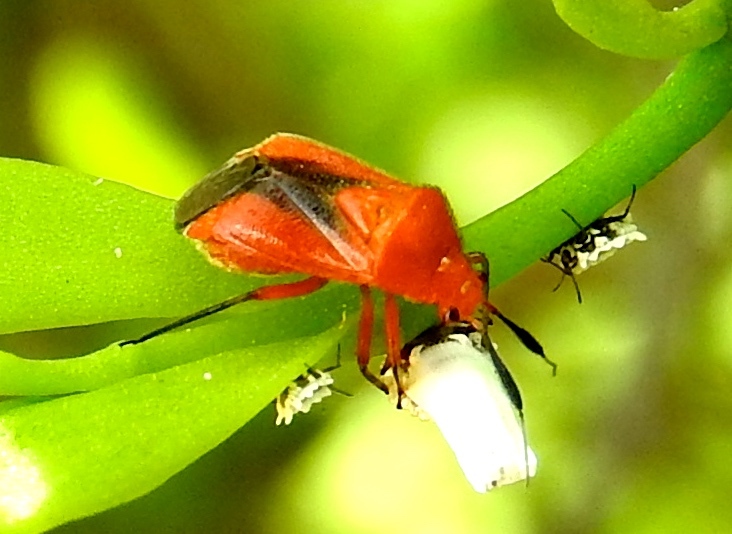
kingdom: Animalia
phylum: Arthropoda
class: Insecta
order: Hemiptera
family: Miridae
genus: Ambracius
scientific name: Ambracius
